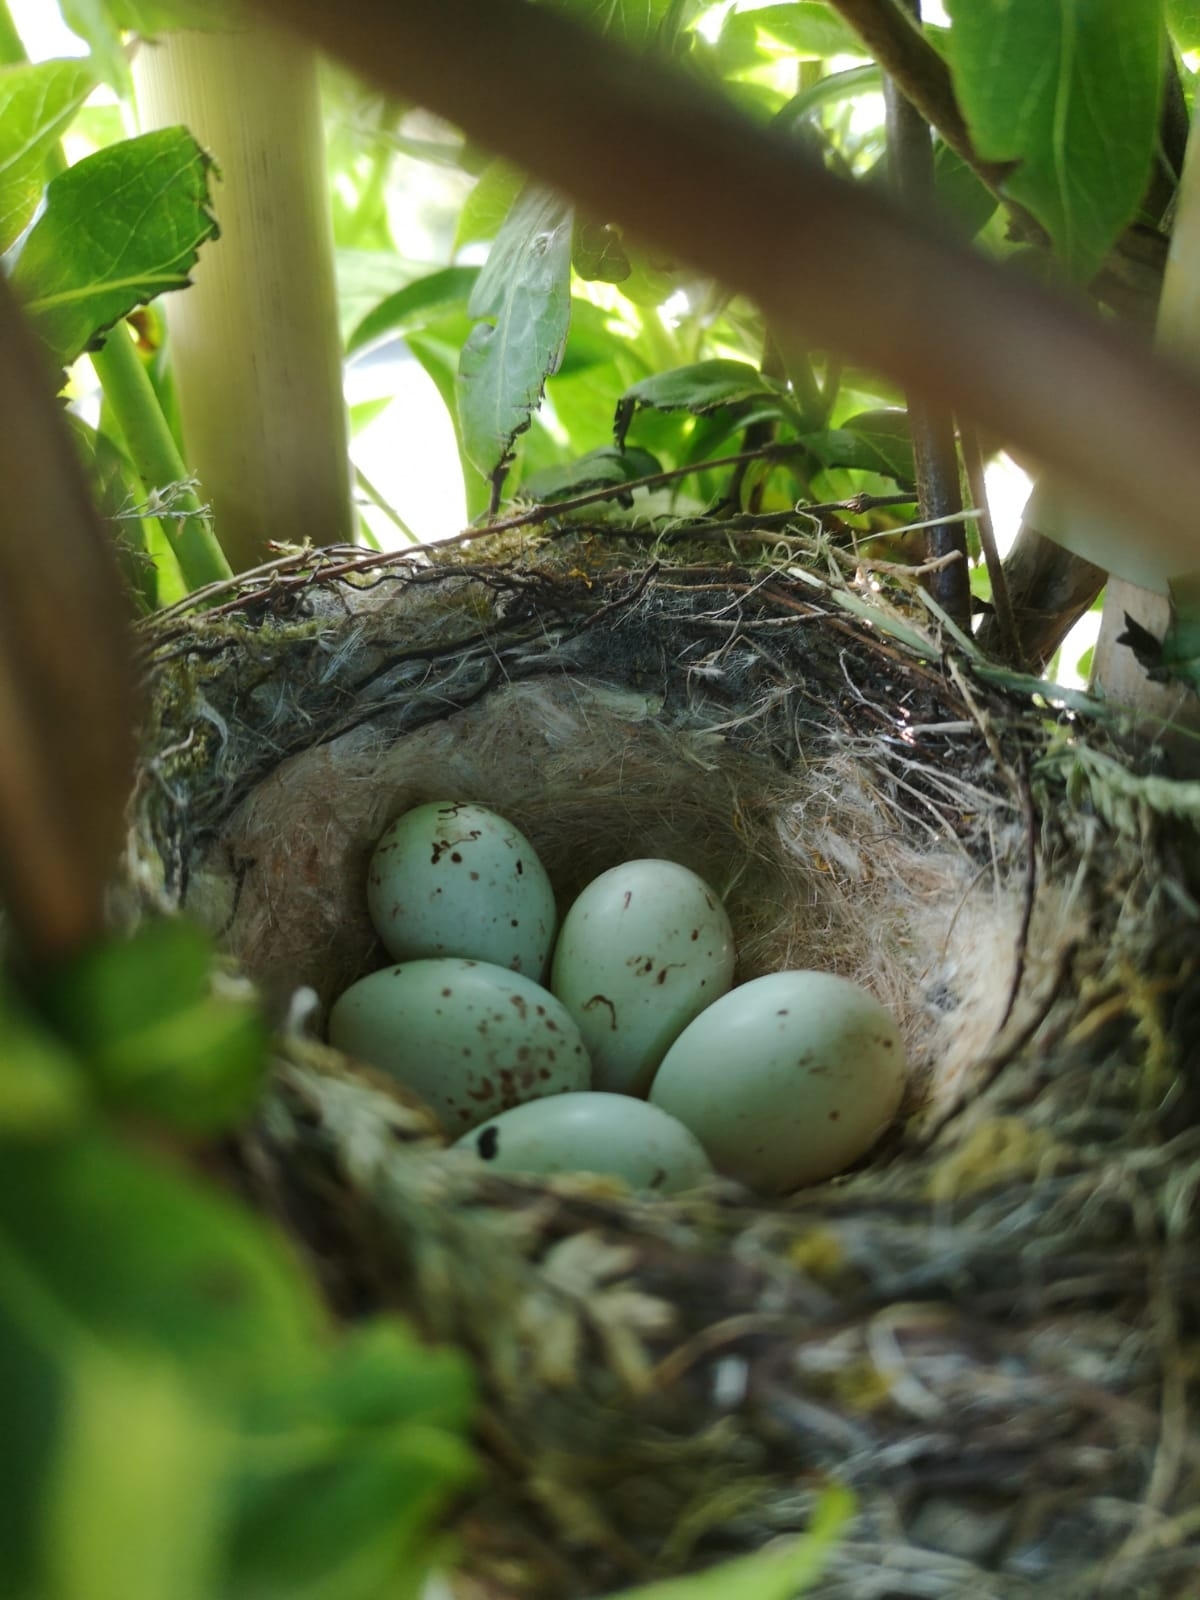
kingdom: Animalia
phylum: Chordata
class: Aves
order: Passeriformes
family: Fringillidae
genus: Carduelis
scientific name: Carduelis carduelis
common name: European goldfinch
